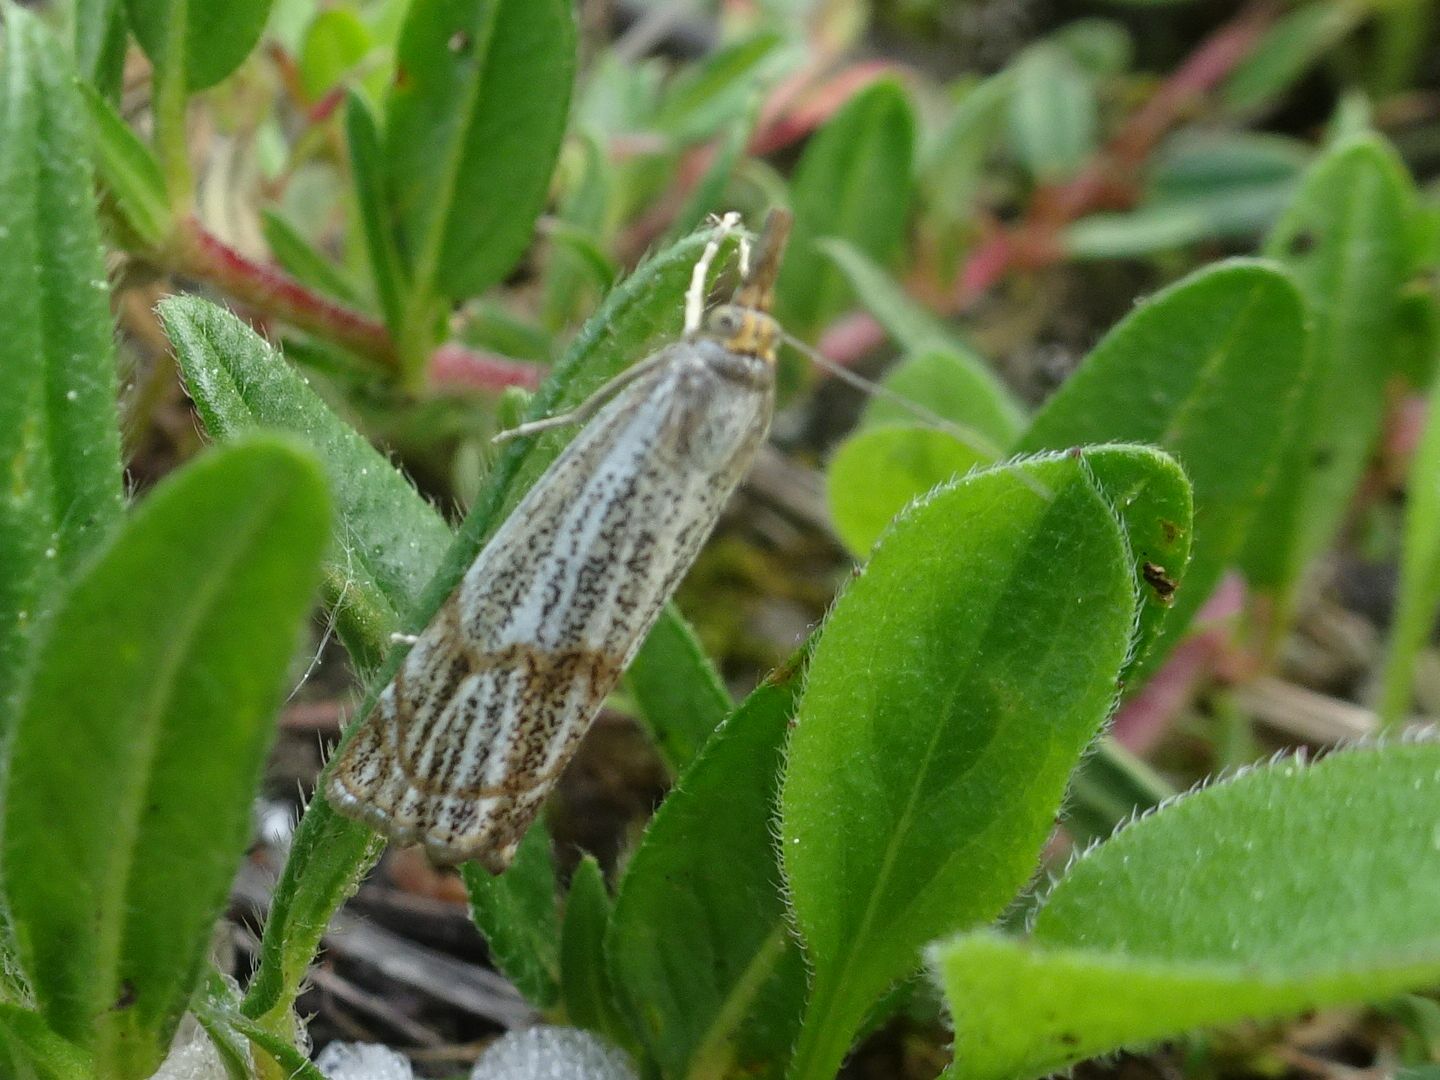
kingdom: Animalia
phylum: Arthropoda
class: Insecta
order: Lepidoptera
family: Crambidae
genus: Thisanotia
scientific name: Thisanotia chrysonuchella
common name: Powdered grass-veneer
